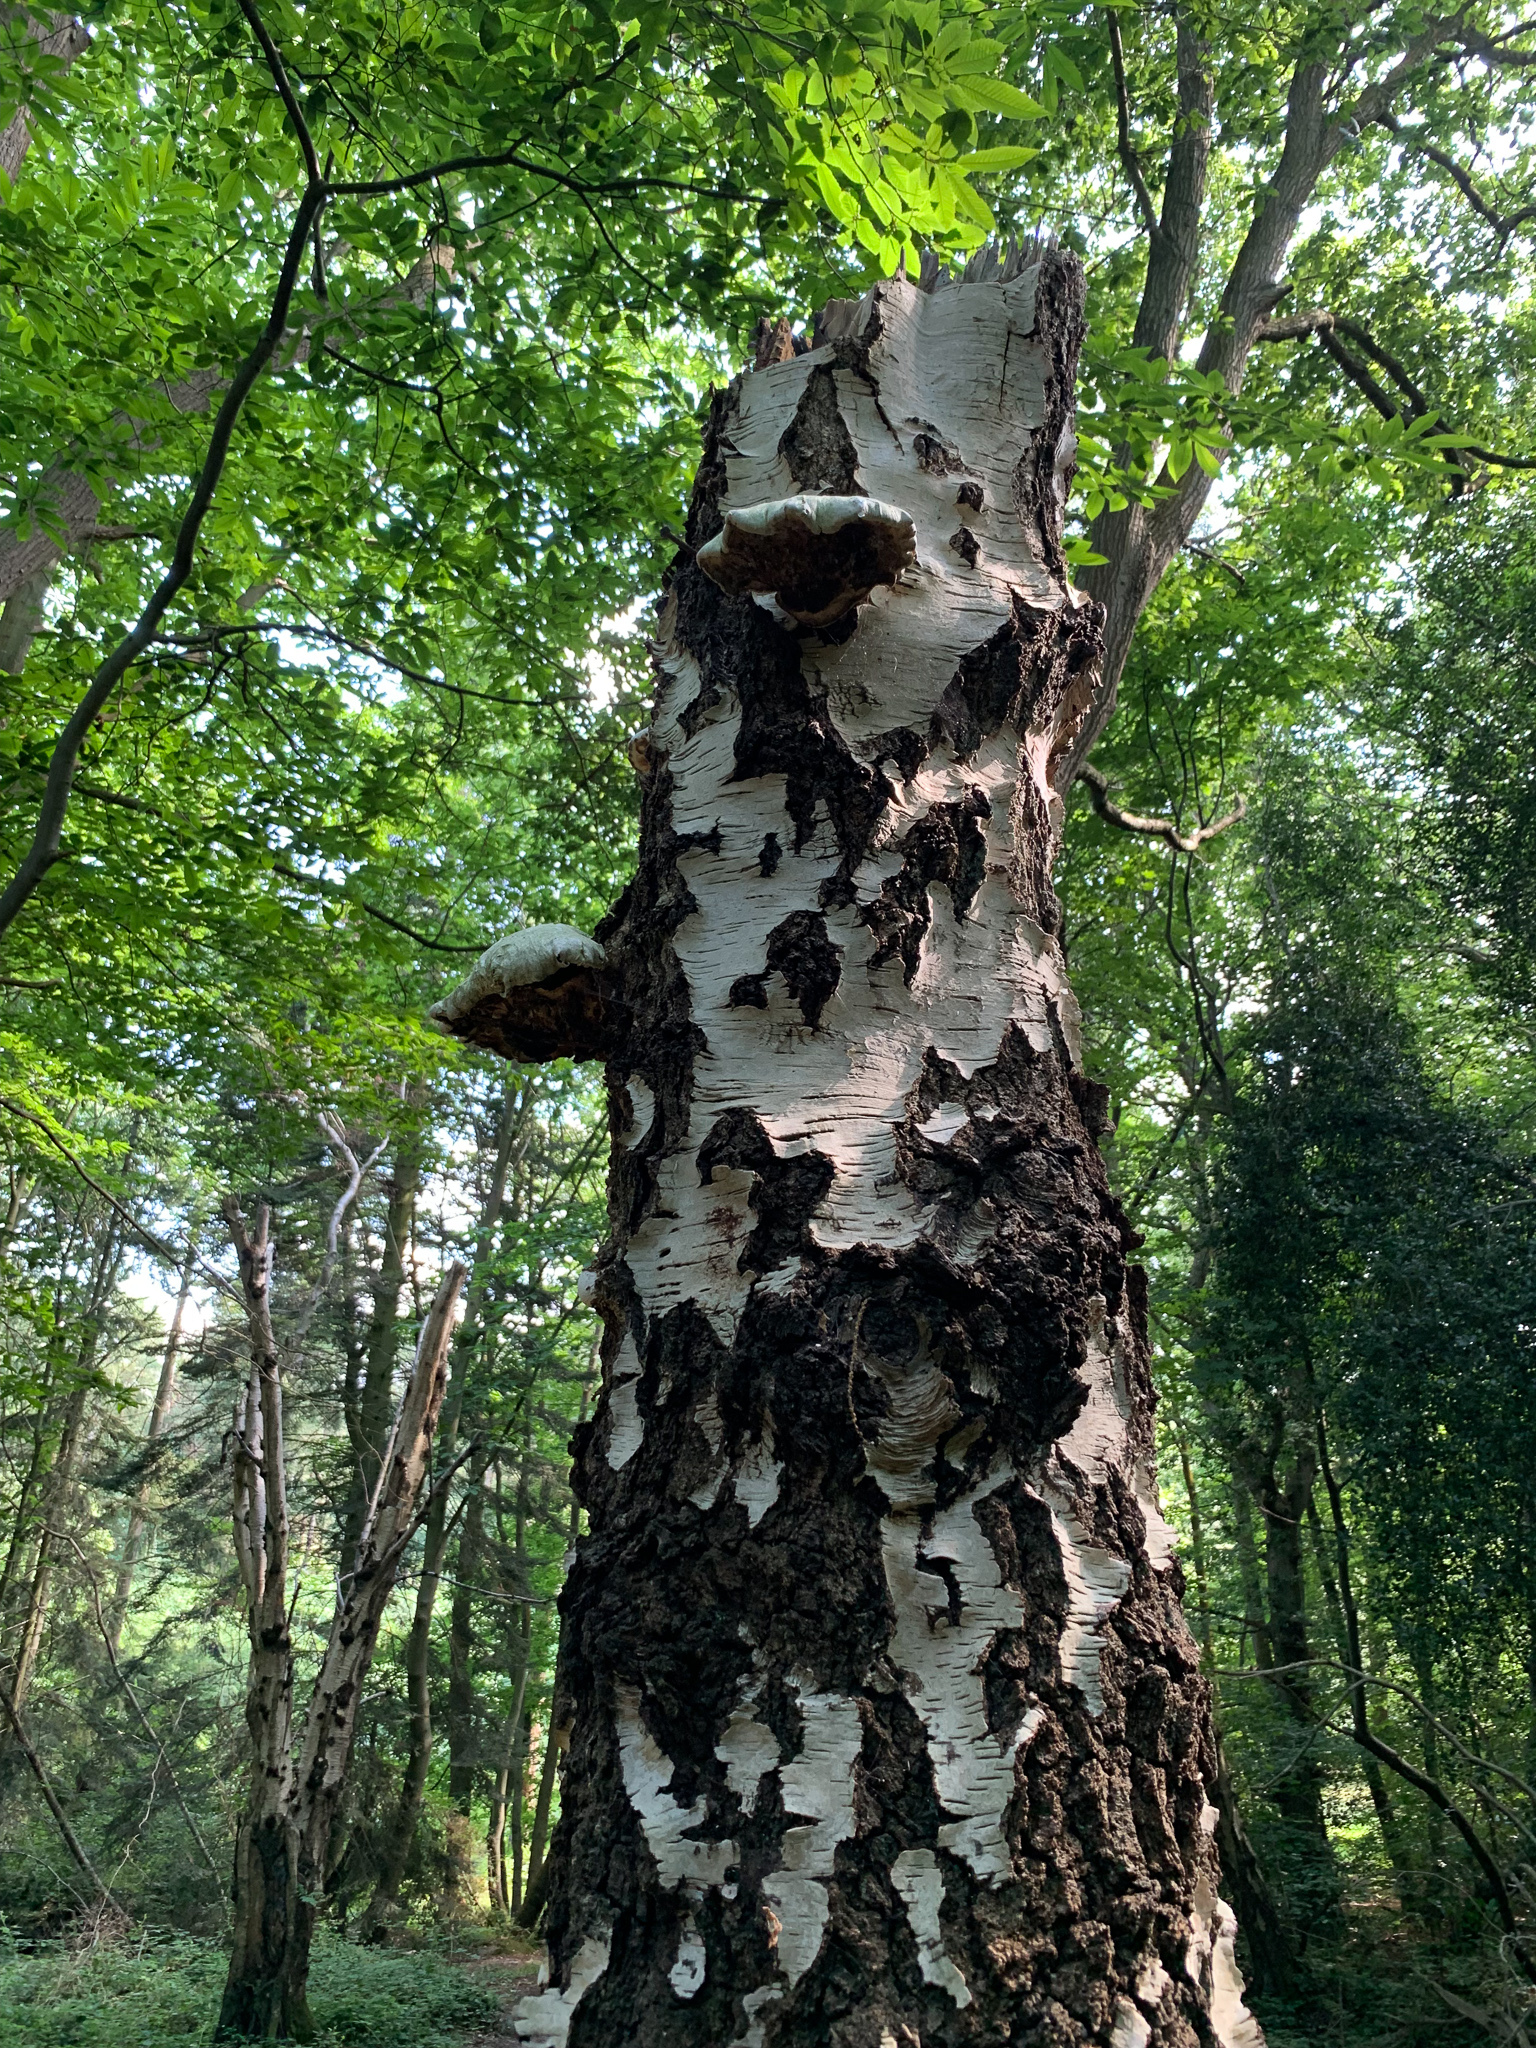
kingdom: Fungi
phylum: Basidiomycota
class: Agaricomycetes
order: Polyporales
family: Fomitopsidaceae
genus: Fomitopsis
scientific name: Fomitopsis betulina
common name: Birch polypore
